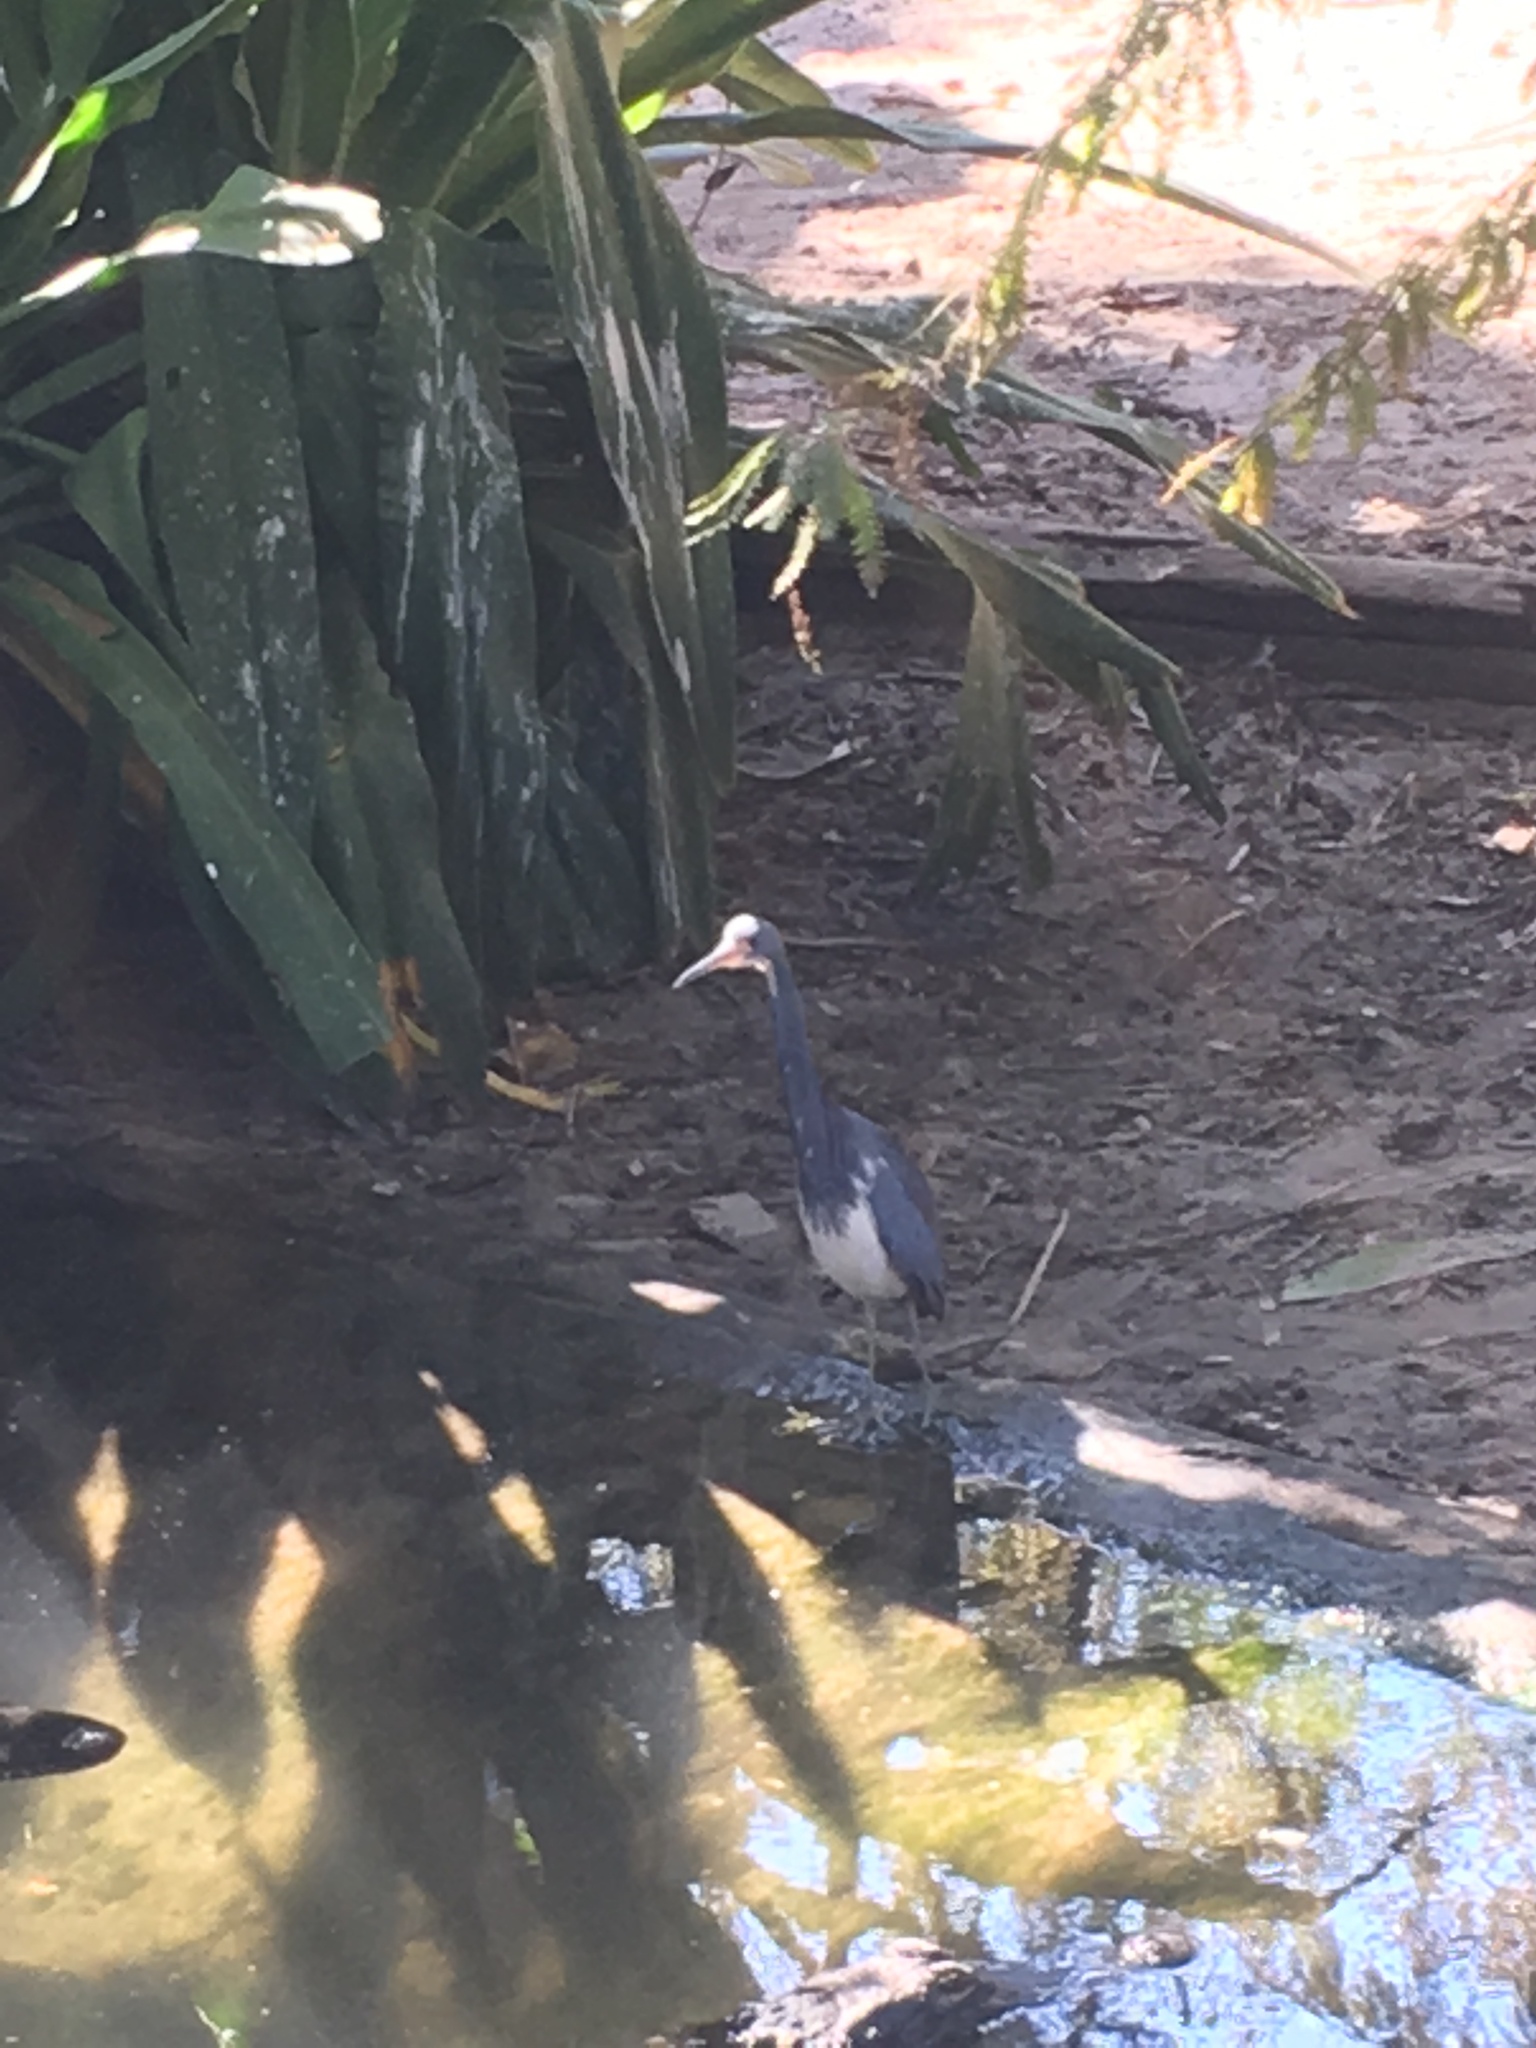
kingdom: Animalia
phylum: Chordata
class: Aves
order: Pelecaniformes
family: Ardeidae
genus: Egretta
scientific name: Egretta tricolor
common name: Tricolored heron
